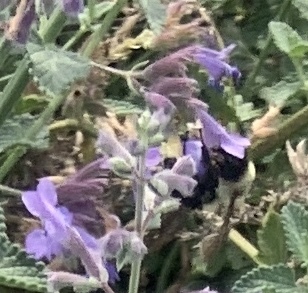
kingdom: Animalia
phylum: Arthropoda
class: Insecta
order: Hymenoptera
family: Apidae
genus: Bombus
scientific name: Bombus impatiens
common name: Common eastern bumble bee
